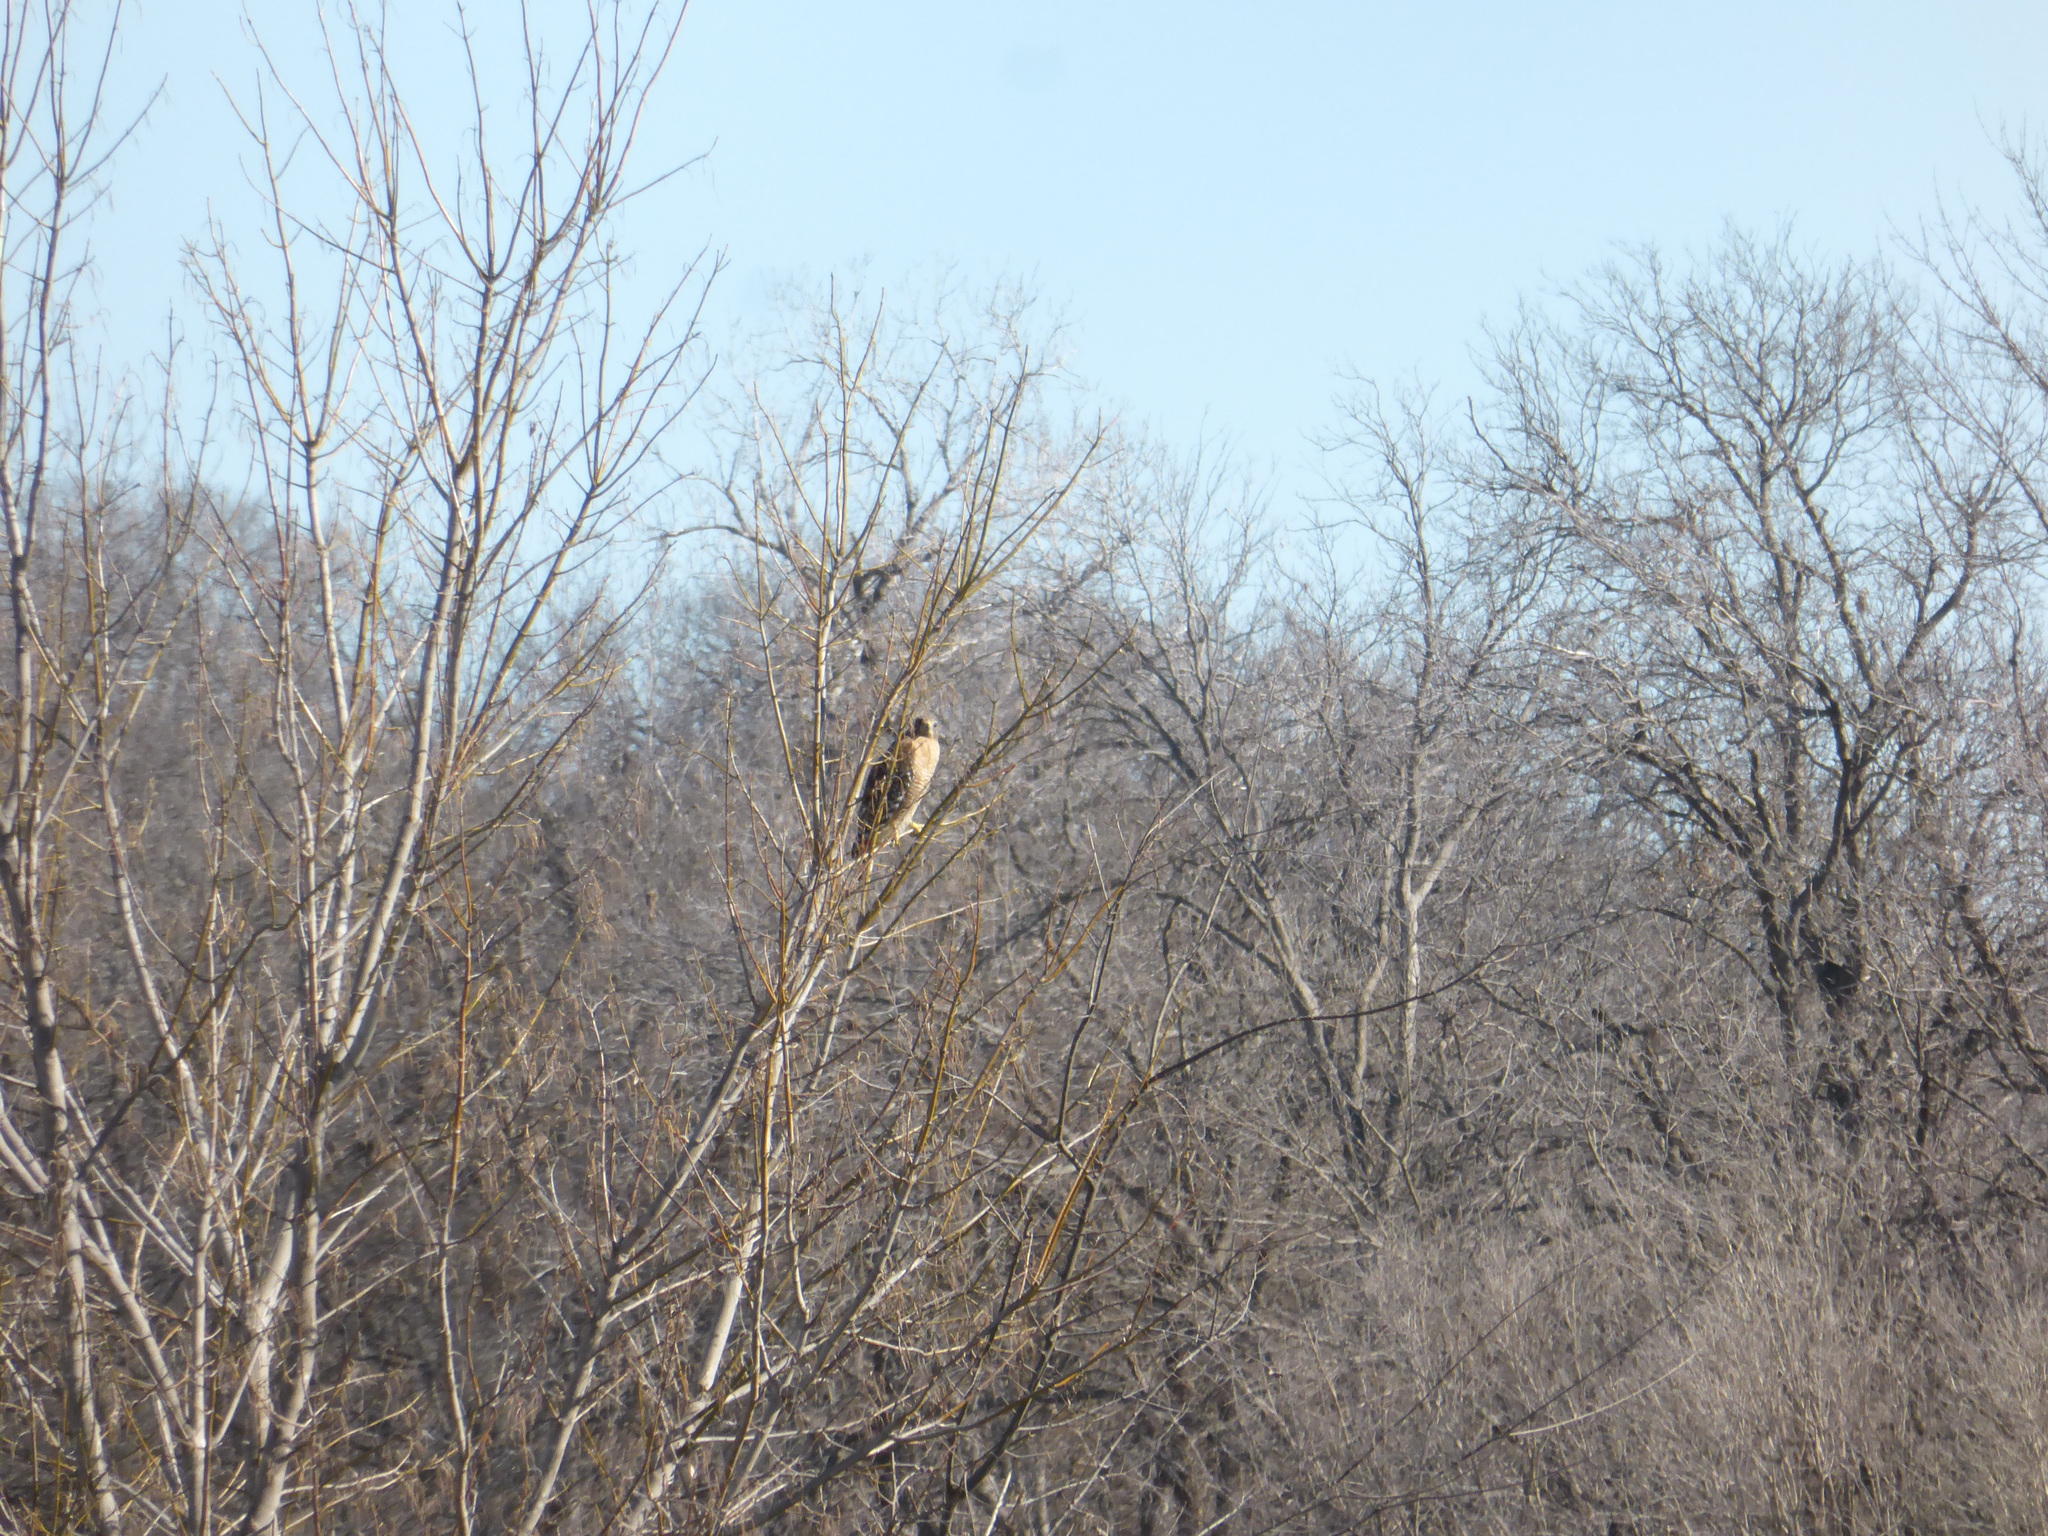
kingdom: Animalia
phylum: Chordata
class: Aves
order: Accipitriformes
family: Accipitridae
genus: Buteo
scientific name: Buteo lineatus
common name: Red-shouldered hawk
